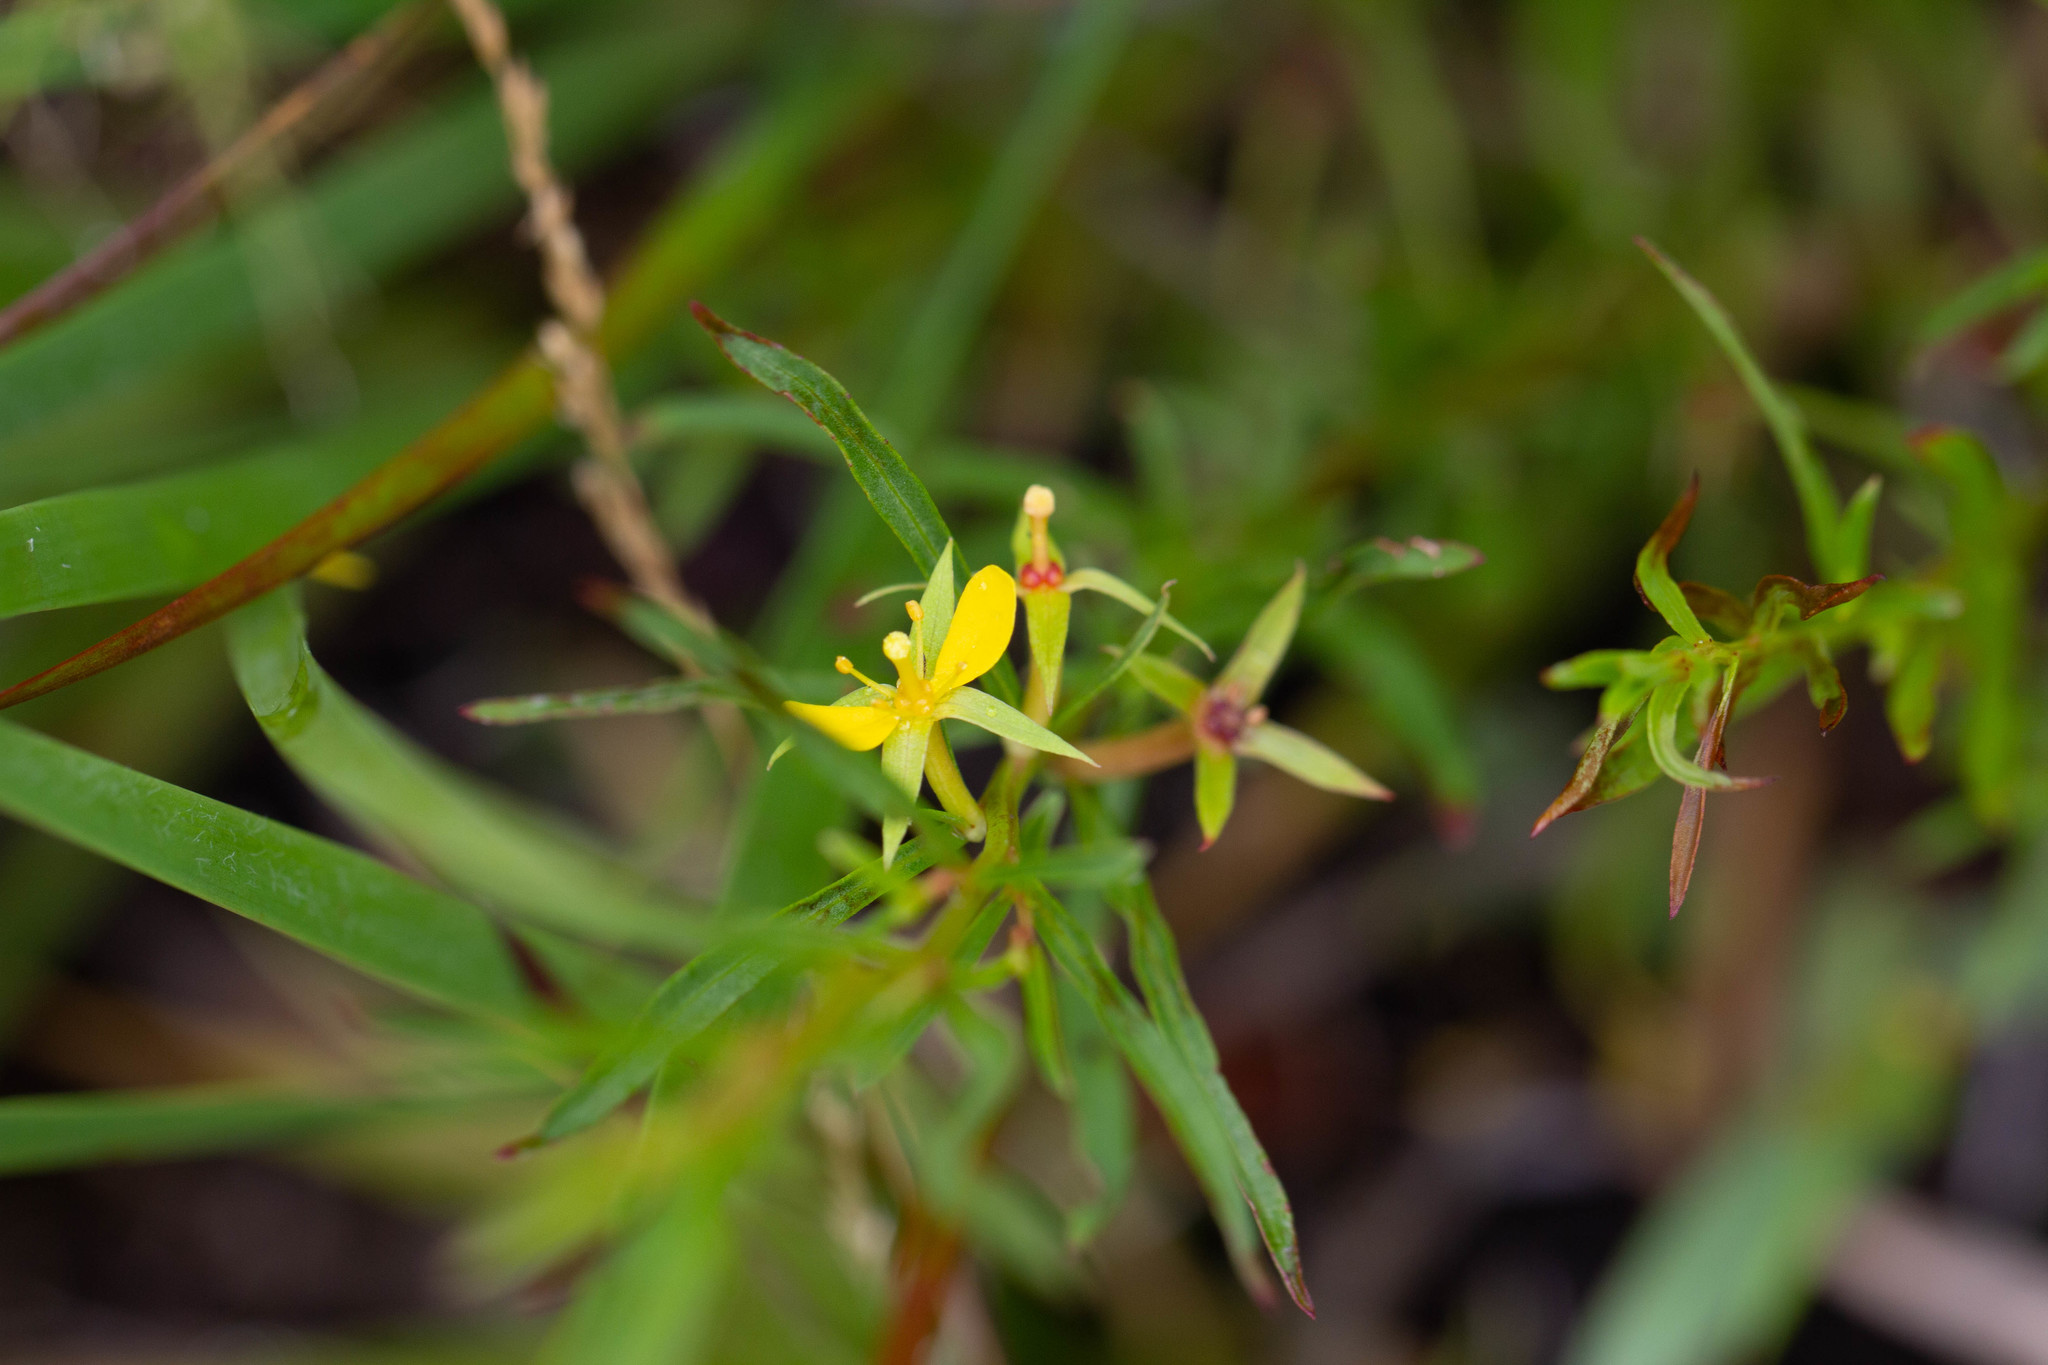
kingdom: Plantae
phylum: Tracheophyta
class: Magnoliopsida
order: Myrtales
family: Onagraceae
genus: Ludwigia
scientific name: Ludwigia linearis
